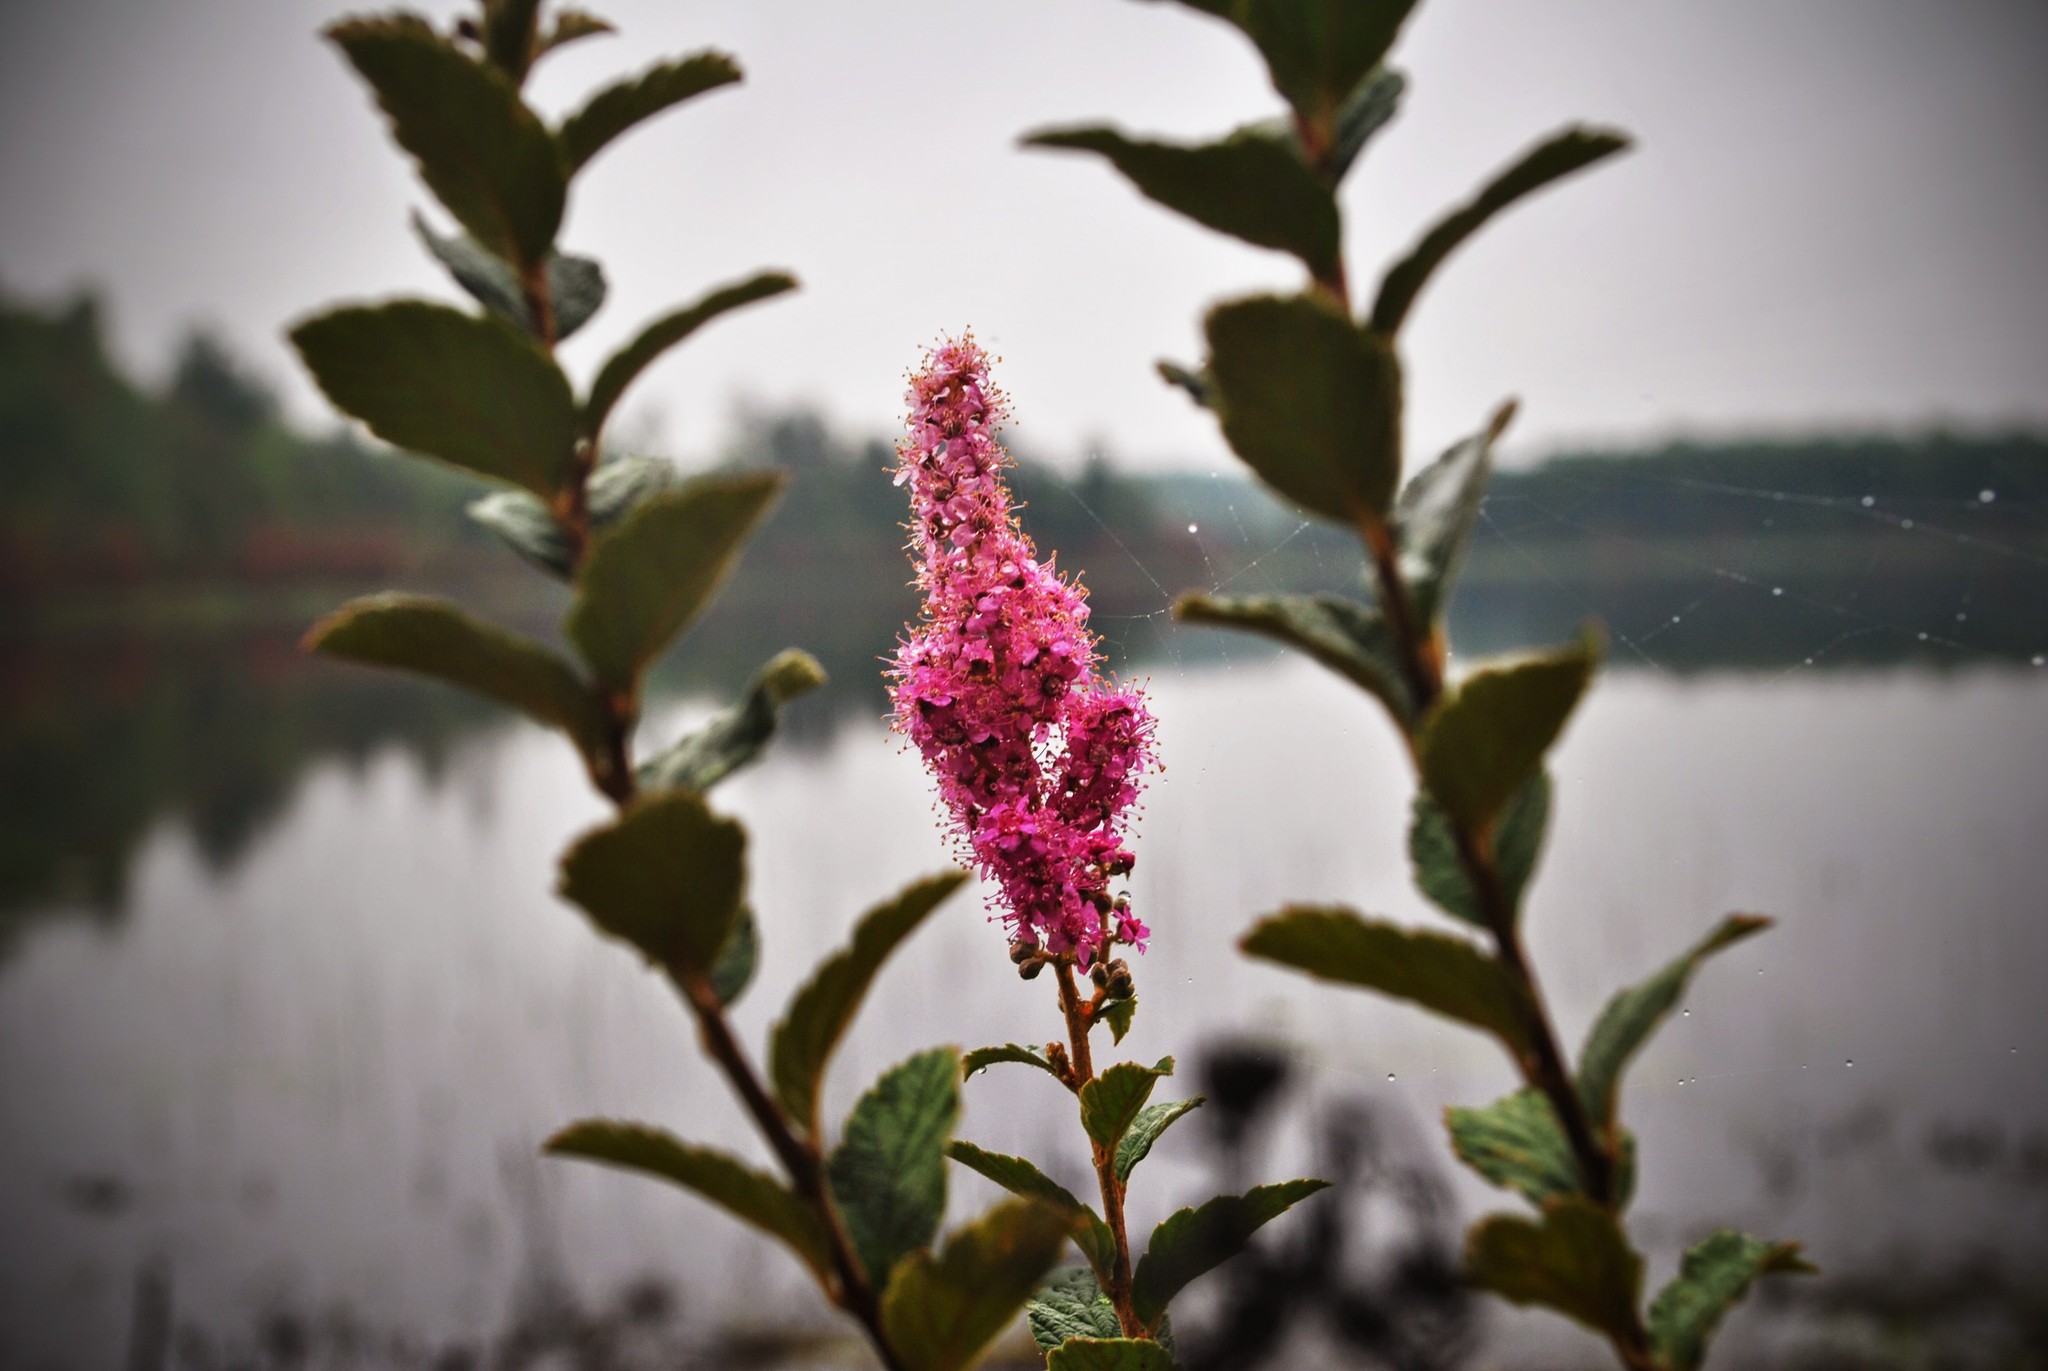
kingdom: Plantae
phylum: Tracheophyta
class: Magnoliopsida
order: Rosales
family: Rosaceae
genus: Spiraea
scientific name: Spiraea tomentosa
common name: Hardhack
